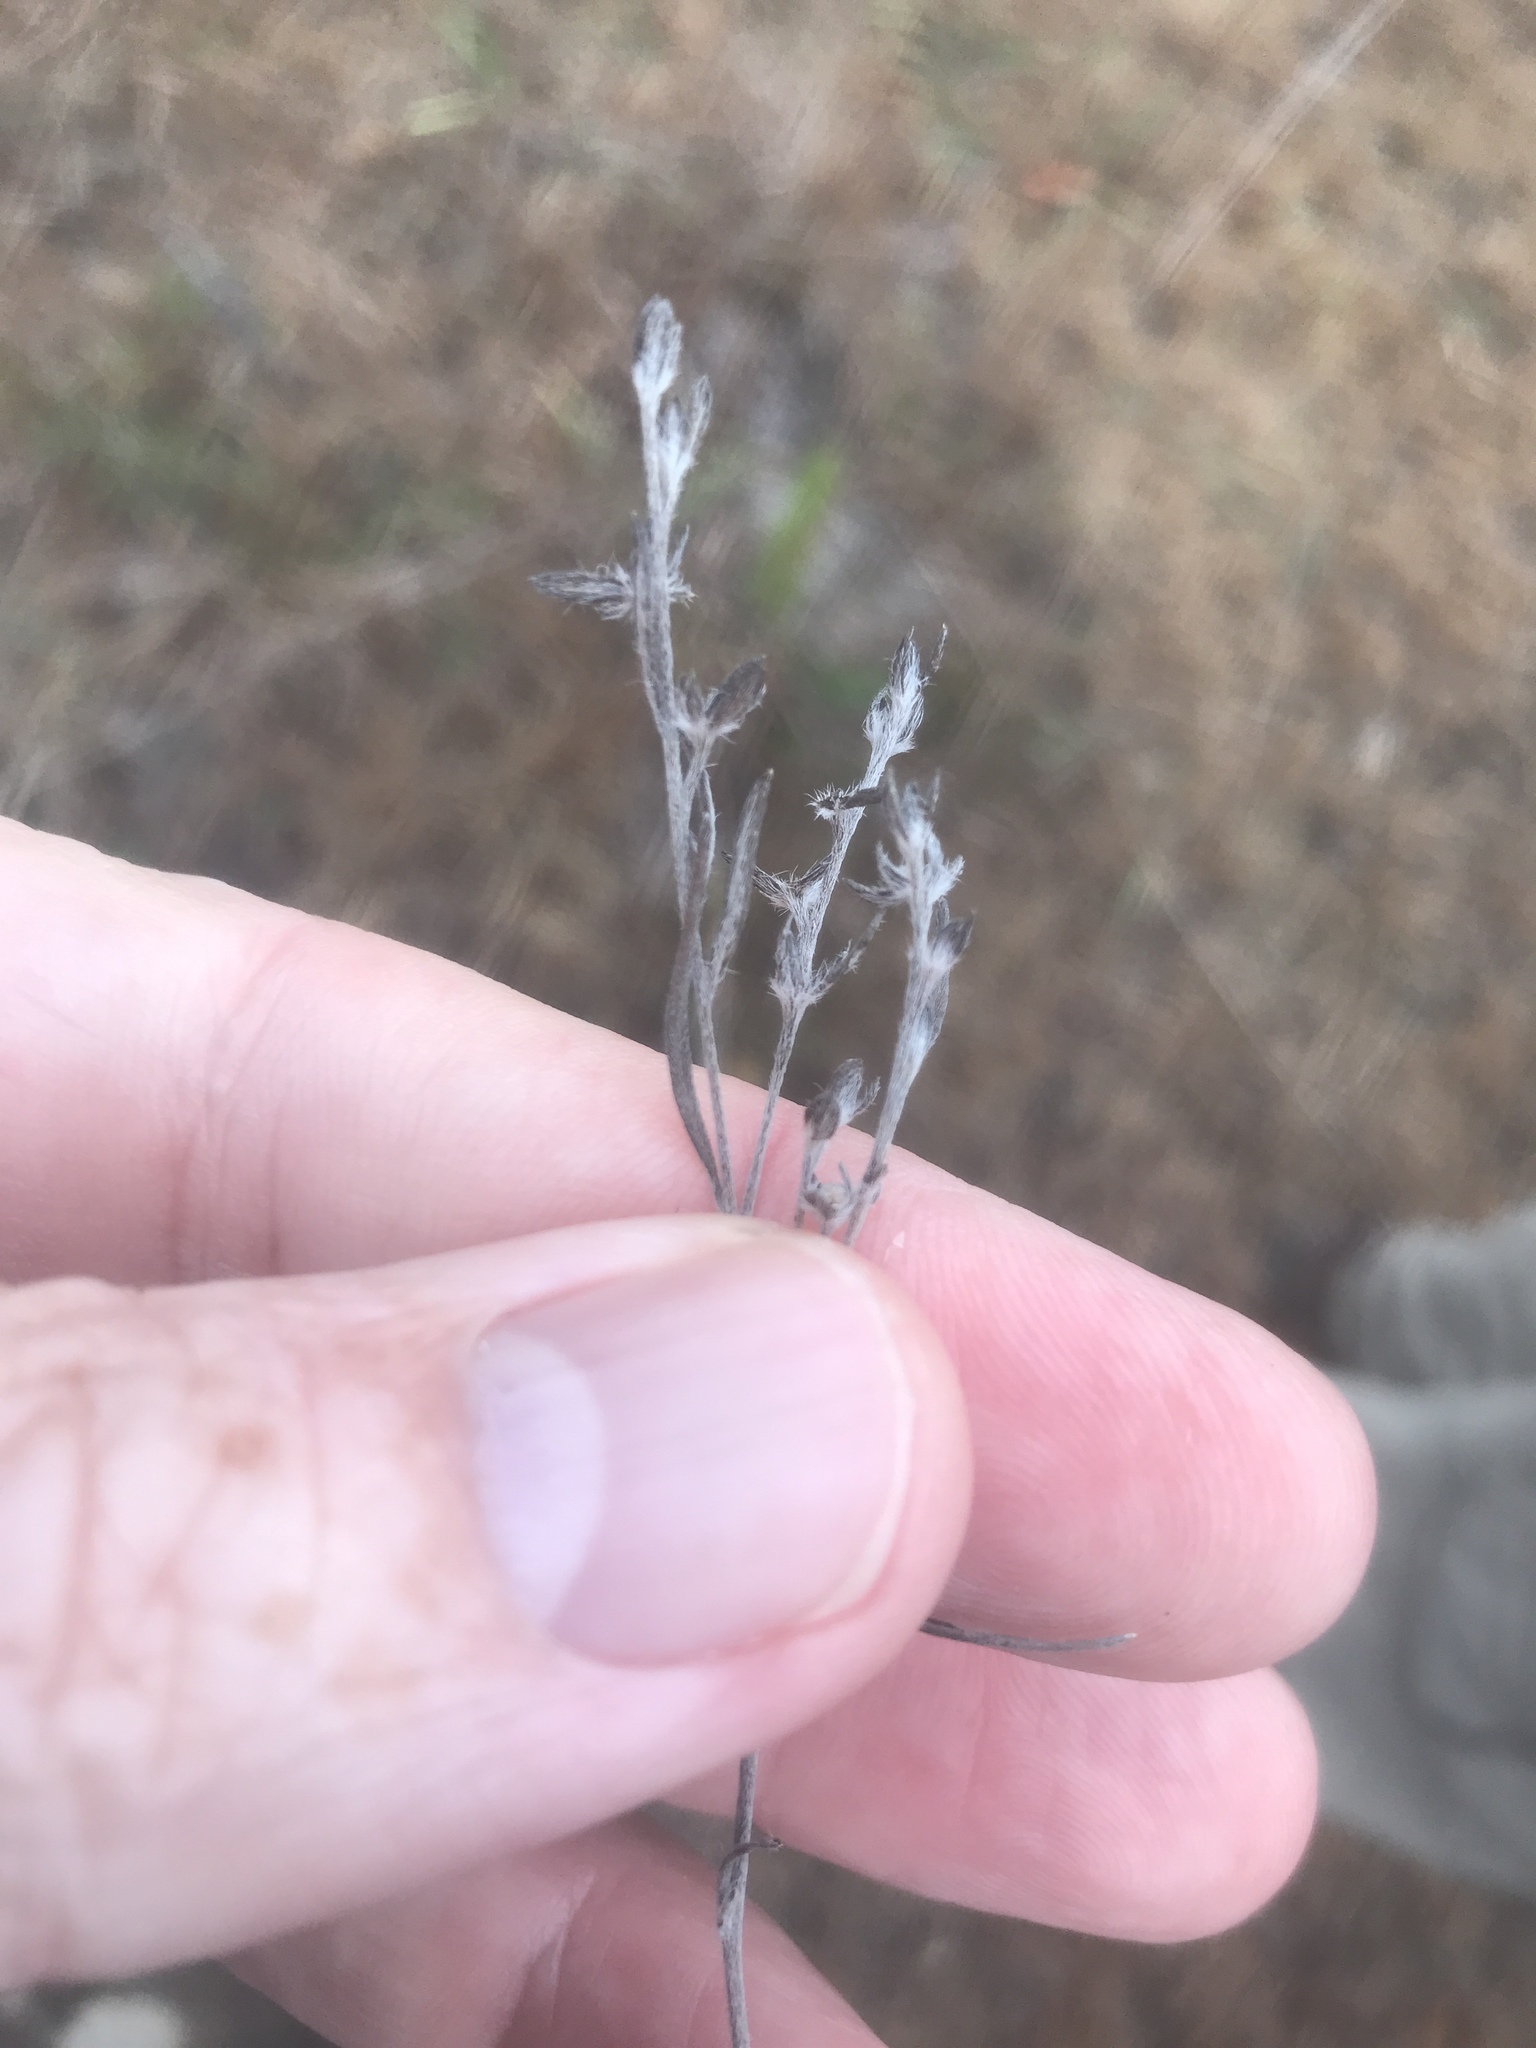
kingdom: Plantae
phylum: Tracheophyta
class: Magnoliopsida
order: Boraginales
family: Heliotropiaceae
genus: Euploca
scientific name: Euploca tenella
